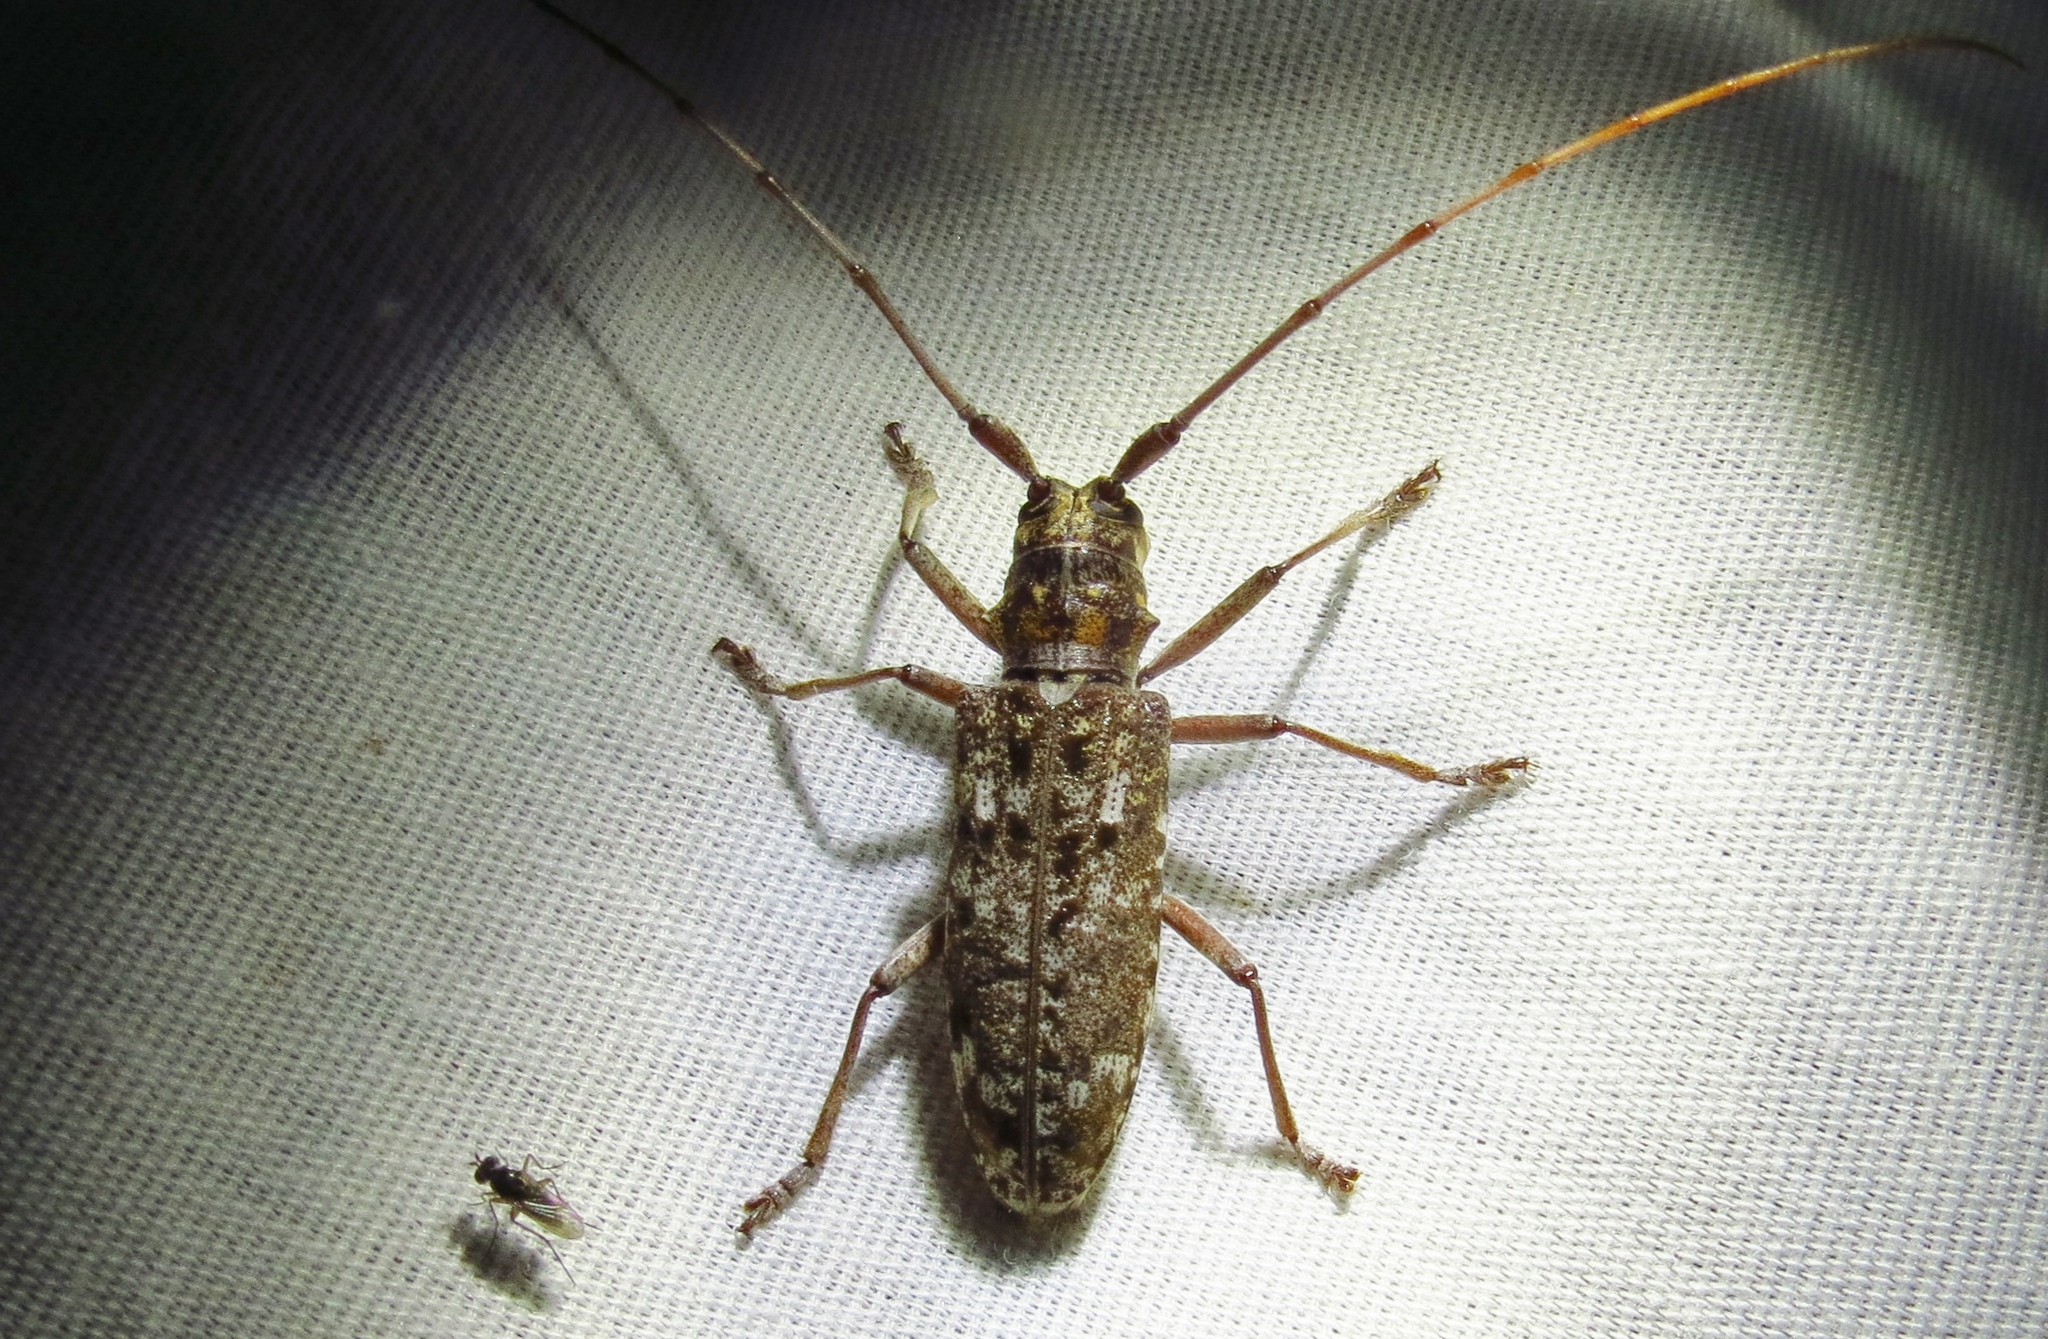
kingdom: Animalia
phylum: Arthropoda
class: Insecta
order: Coleoptera
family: Cerambycidae
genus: Monochamus
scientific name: Monochamus carolinensis
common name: Carolina pine sawyer
